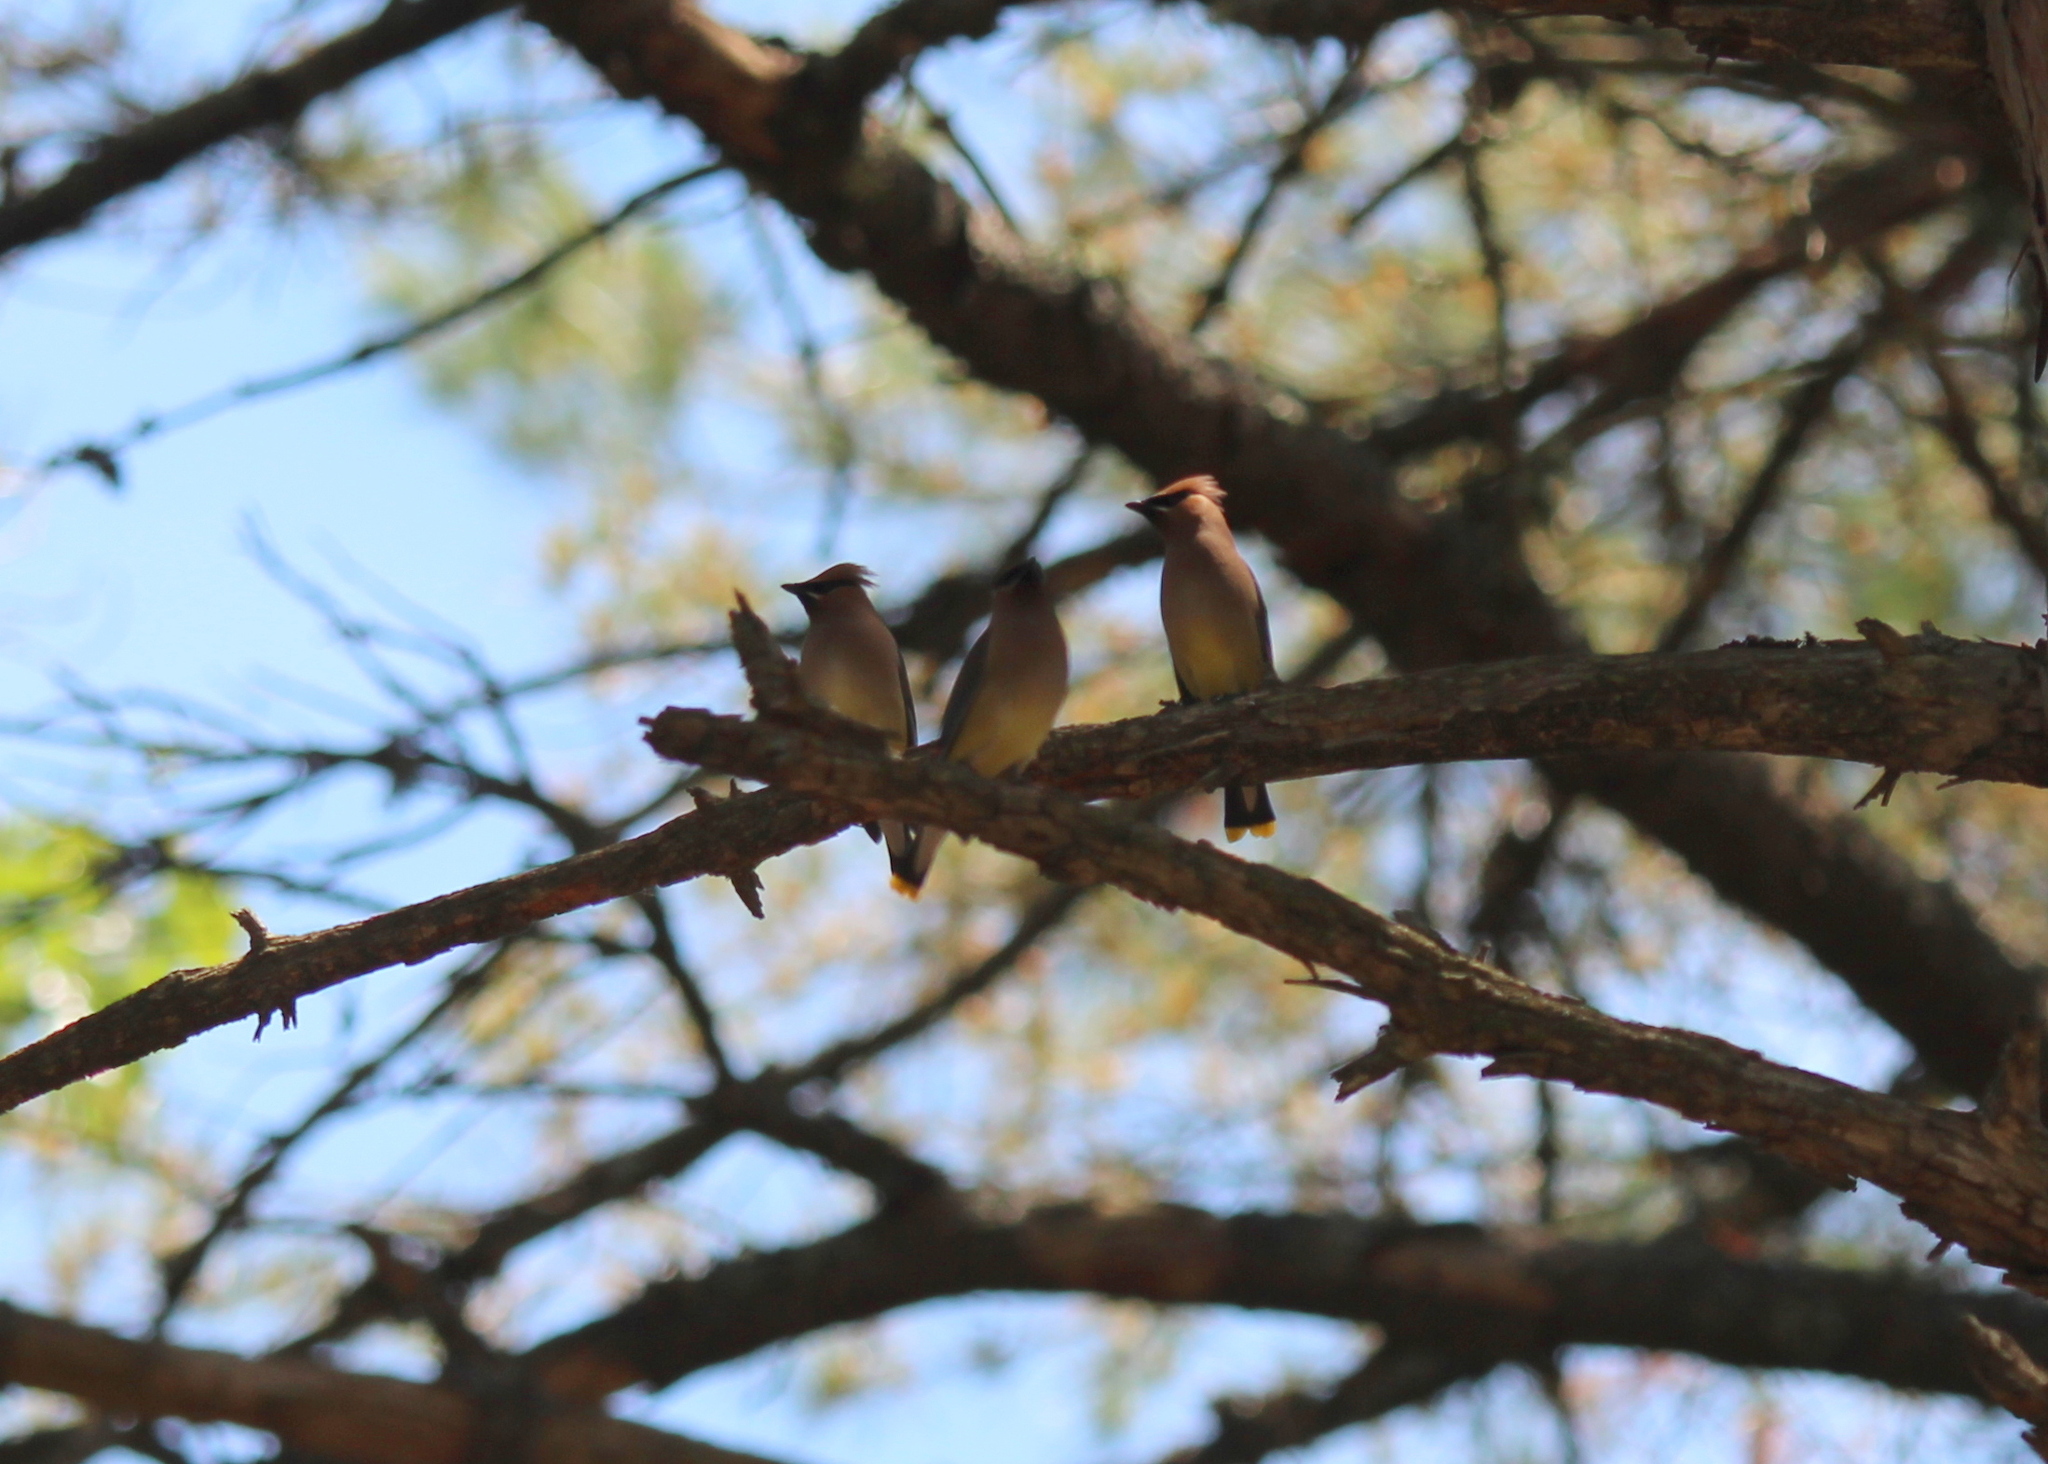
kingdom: Animalia
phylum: Chordata
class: Aves
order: Passeriformes
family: Bombycillidae
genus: Bombycilla
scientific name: Bombycilla cedrorum
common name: Cedar waxwing
